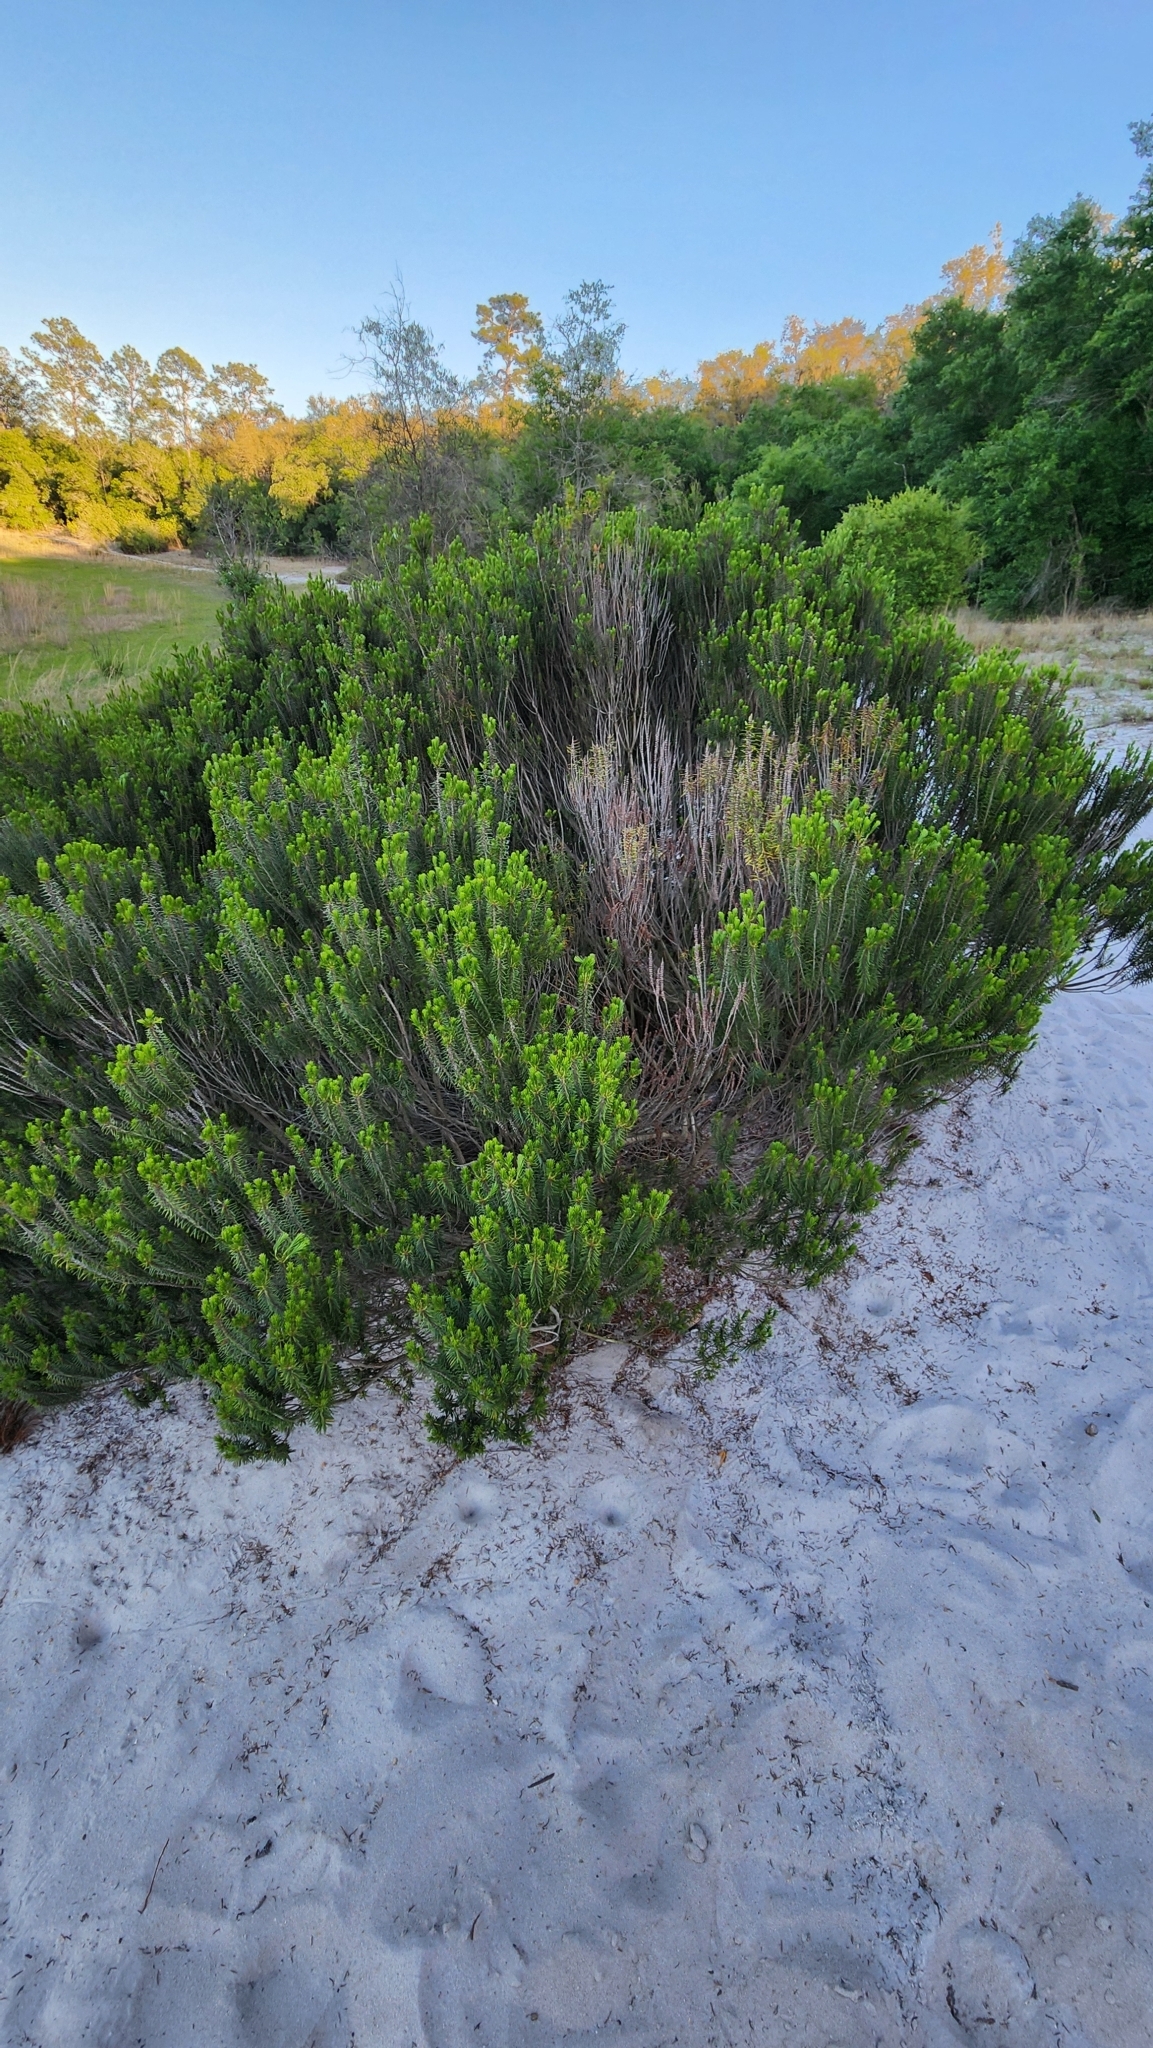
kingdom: Plantae
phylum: Tracheophyta
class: Magnoliopsida
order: Ericales
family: Ericaceae
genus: Ceratiola
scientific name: Ceratiola ericoides
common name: Sandhill-rosemary
